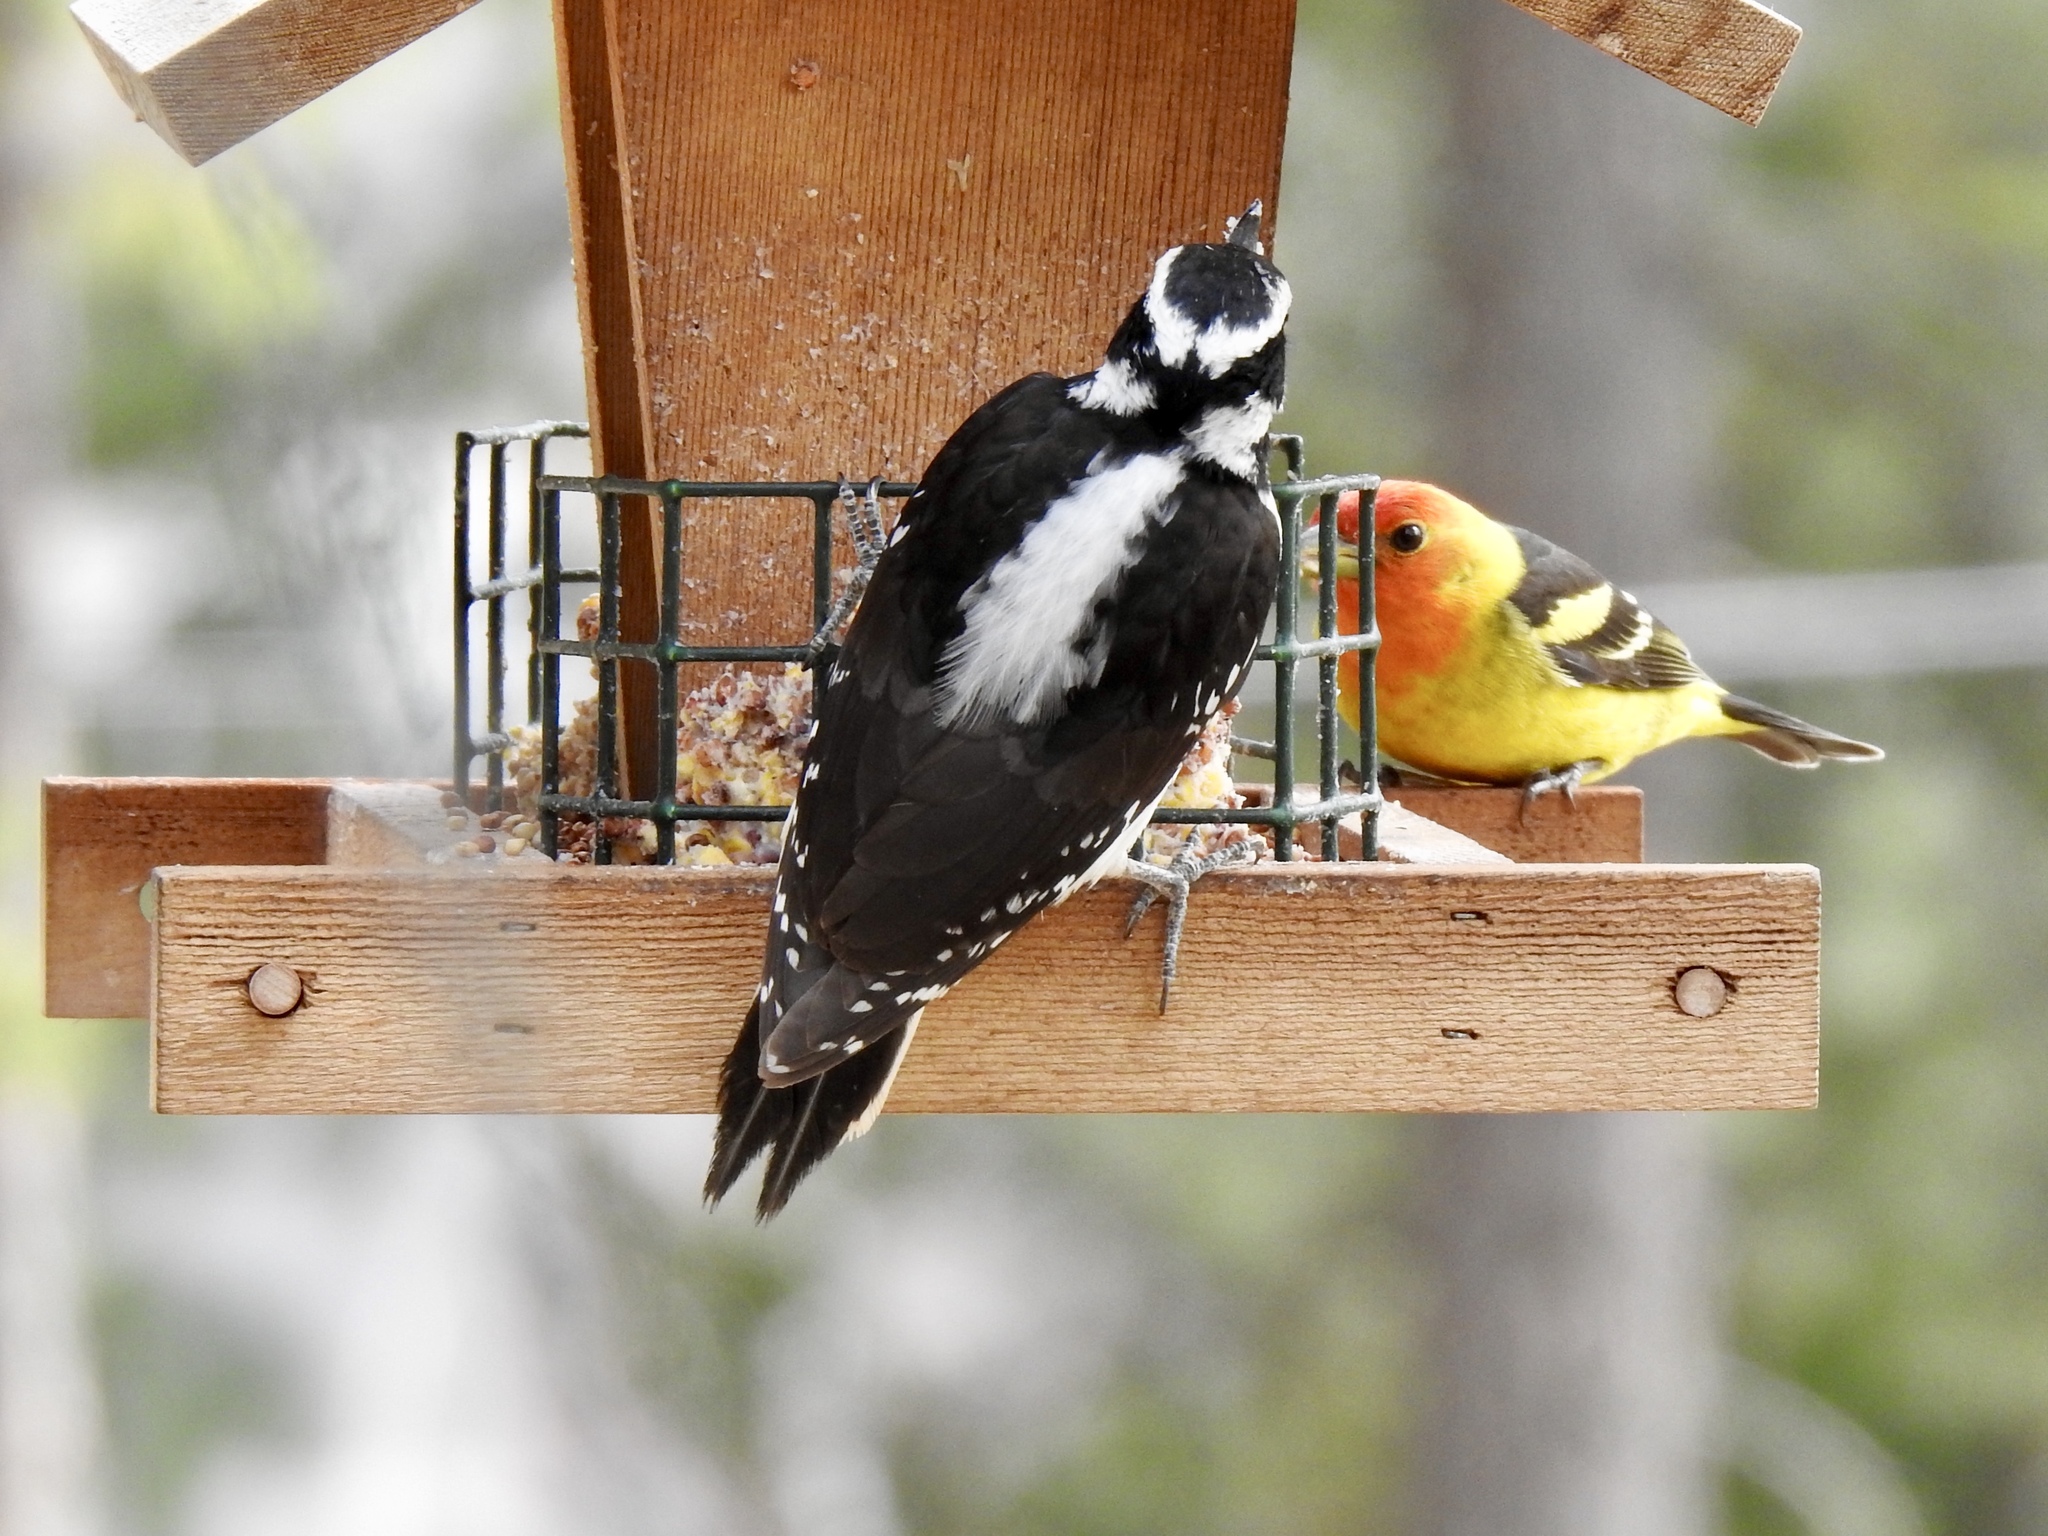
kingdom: Animalia
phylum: Chordata
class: Aves
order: Piciformes
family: Picidae
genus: Leuconotopicus
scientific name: Leuconotopicus villosus
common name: Hairy woodpecker
